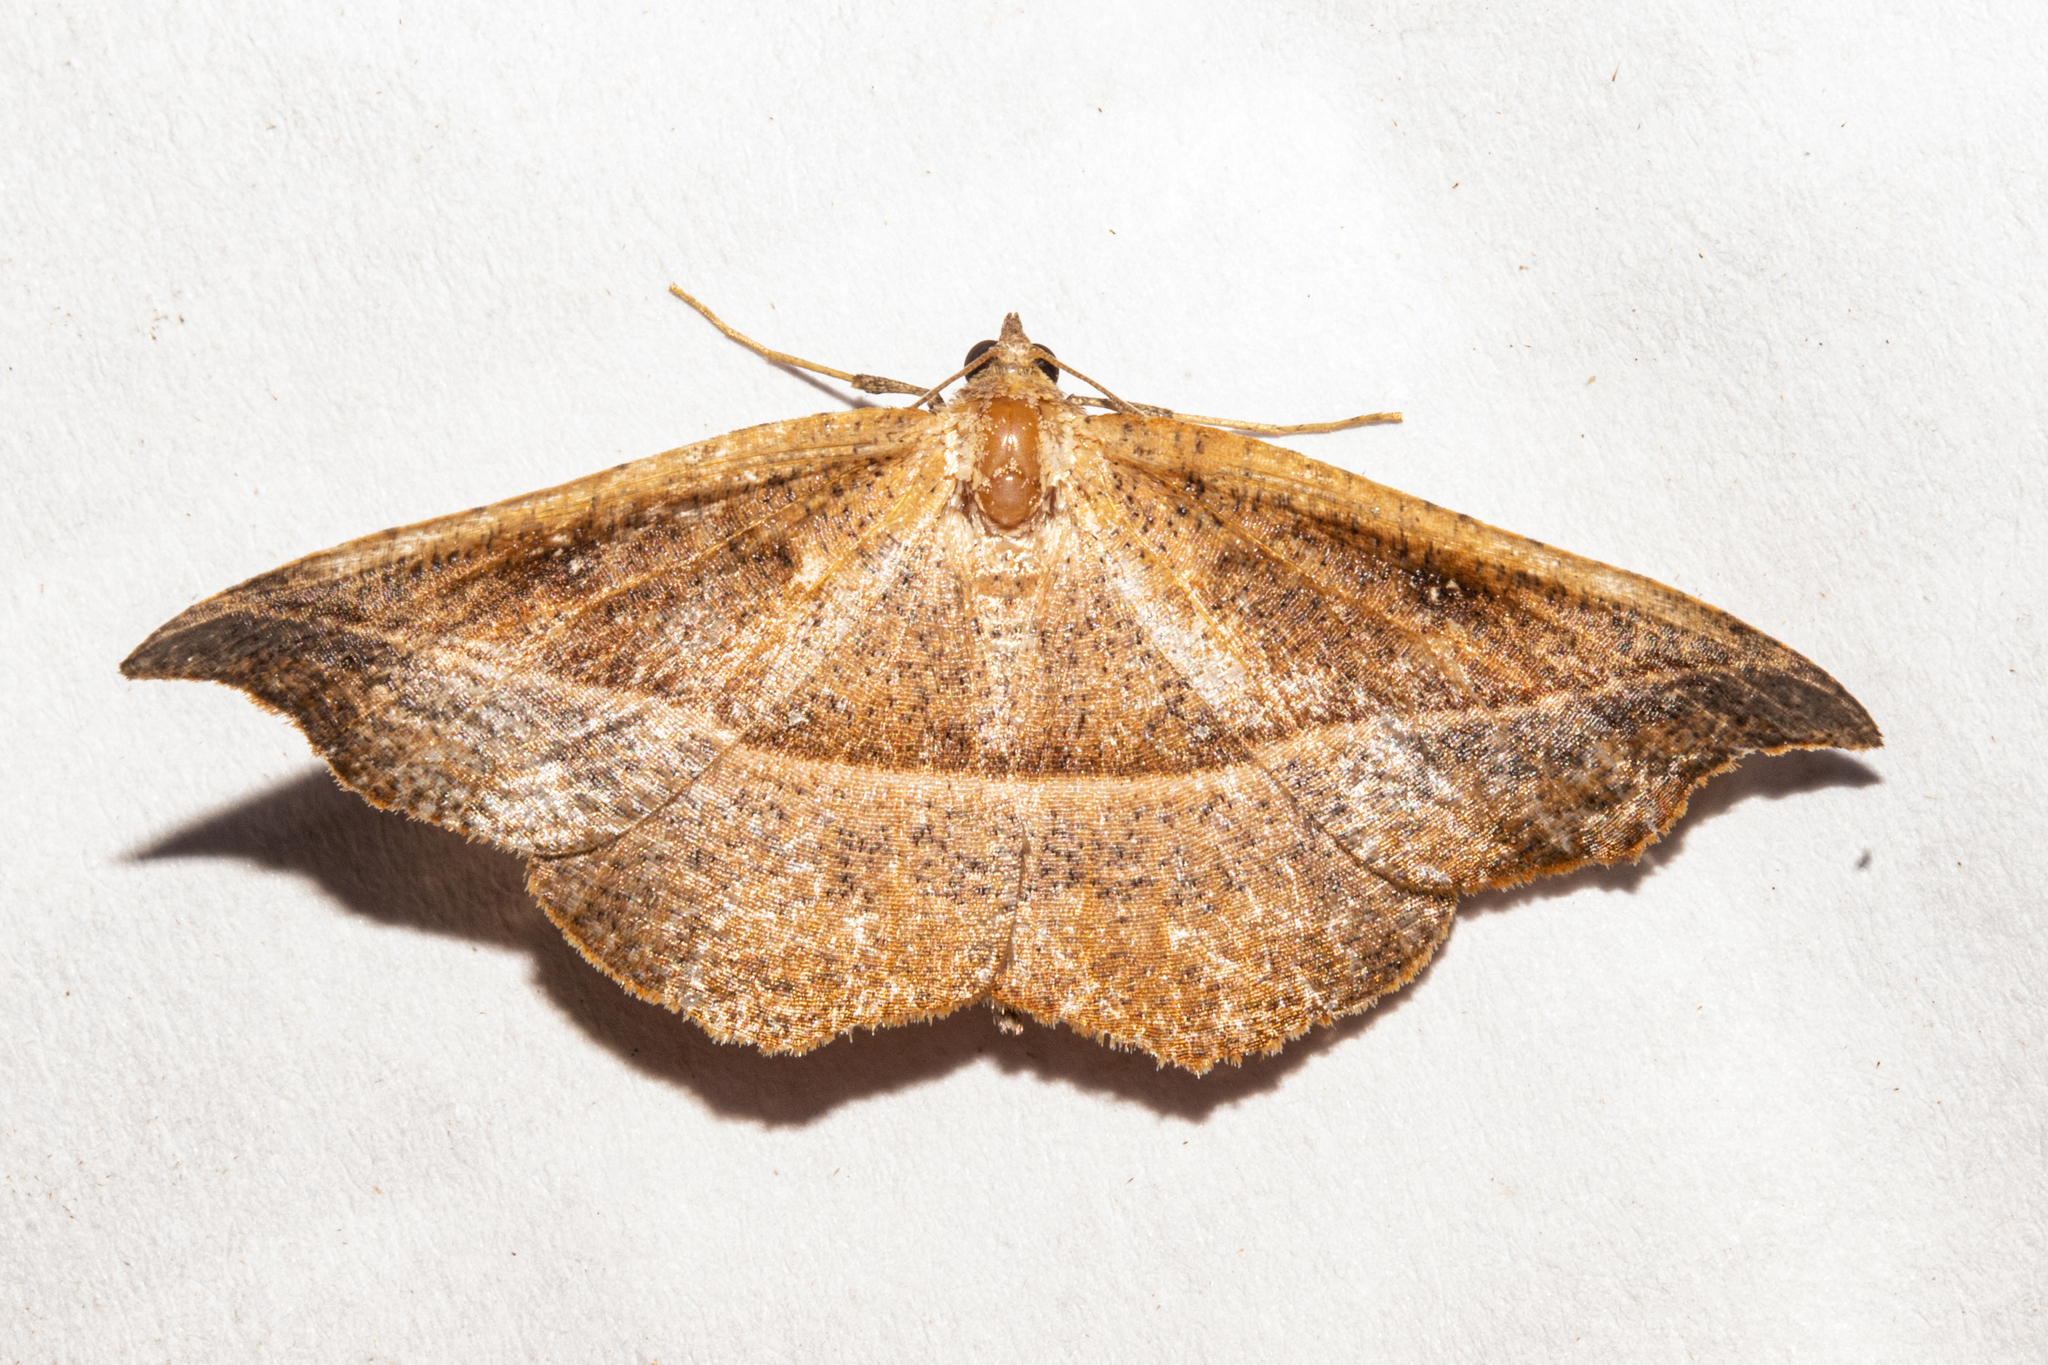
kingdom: Animalia
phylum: Arthropoda
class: Insecta
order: Lepidoptera
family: Geometridae
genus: Sarisa
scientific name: Sarisa muriferata
